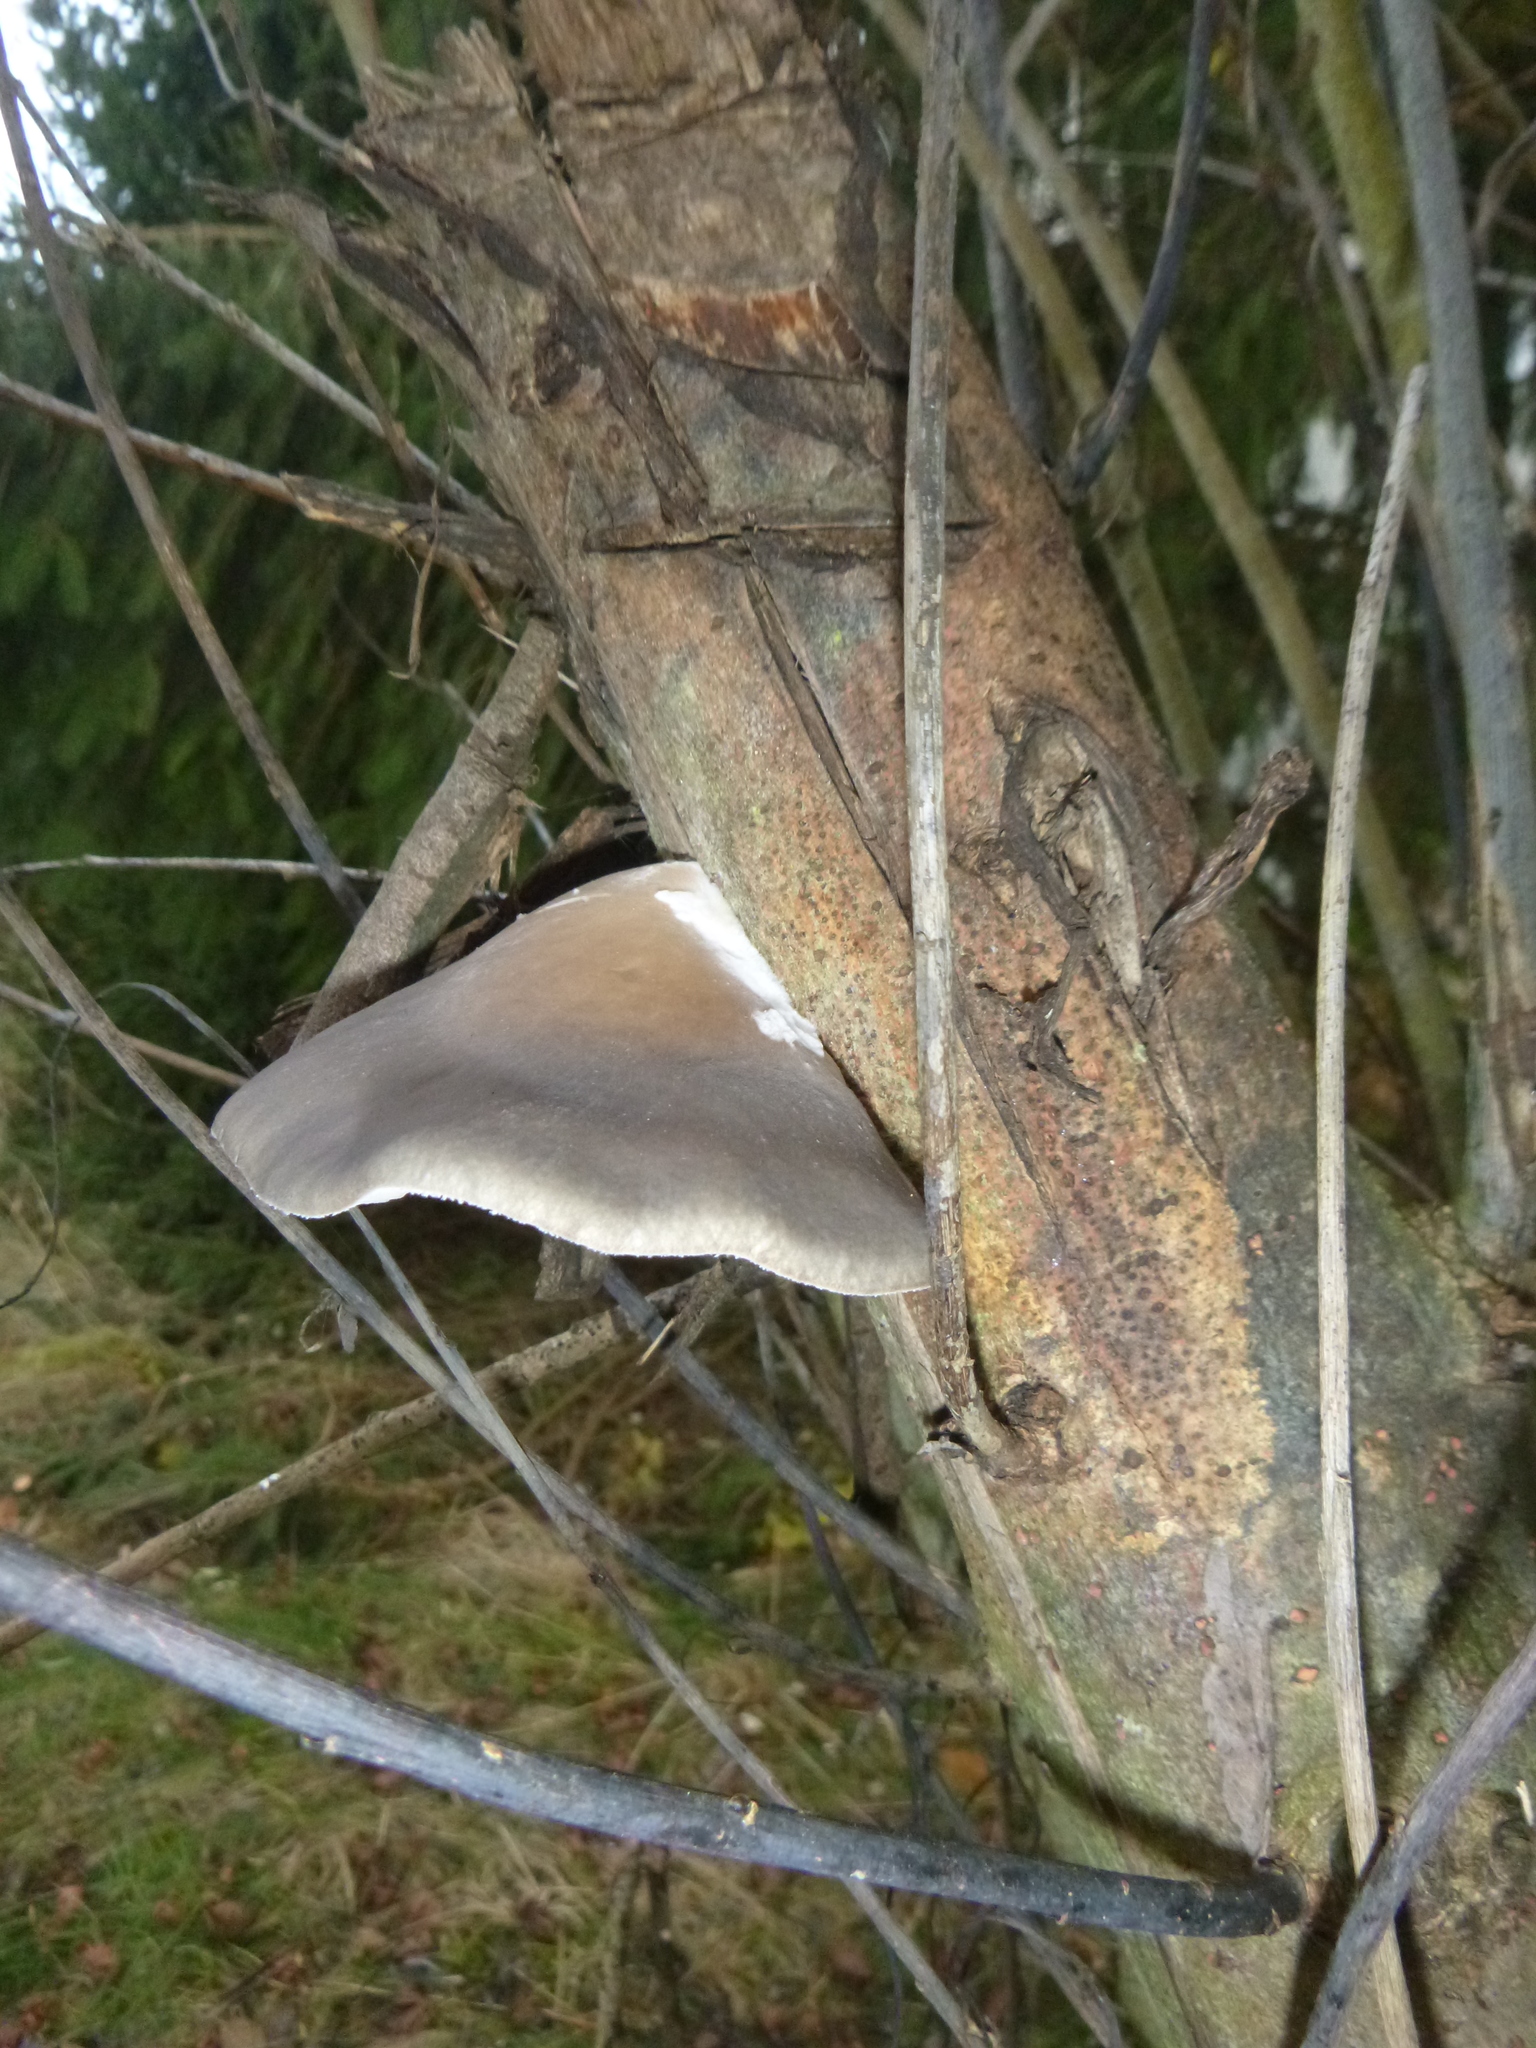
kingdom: Fungi
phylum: Basidiomycota
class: Agaricomycetes
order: Agaricales
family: Pleurotaceae
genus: Pleurotus
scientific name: Pleurotus ostreatus
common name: Oyster mushroom
